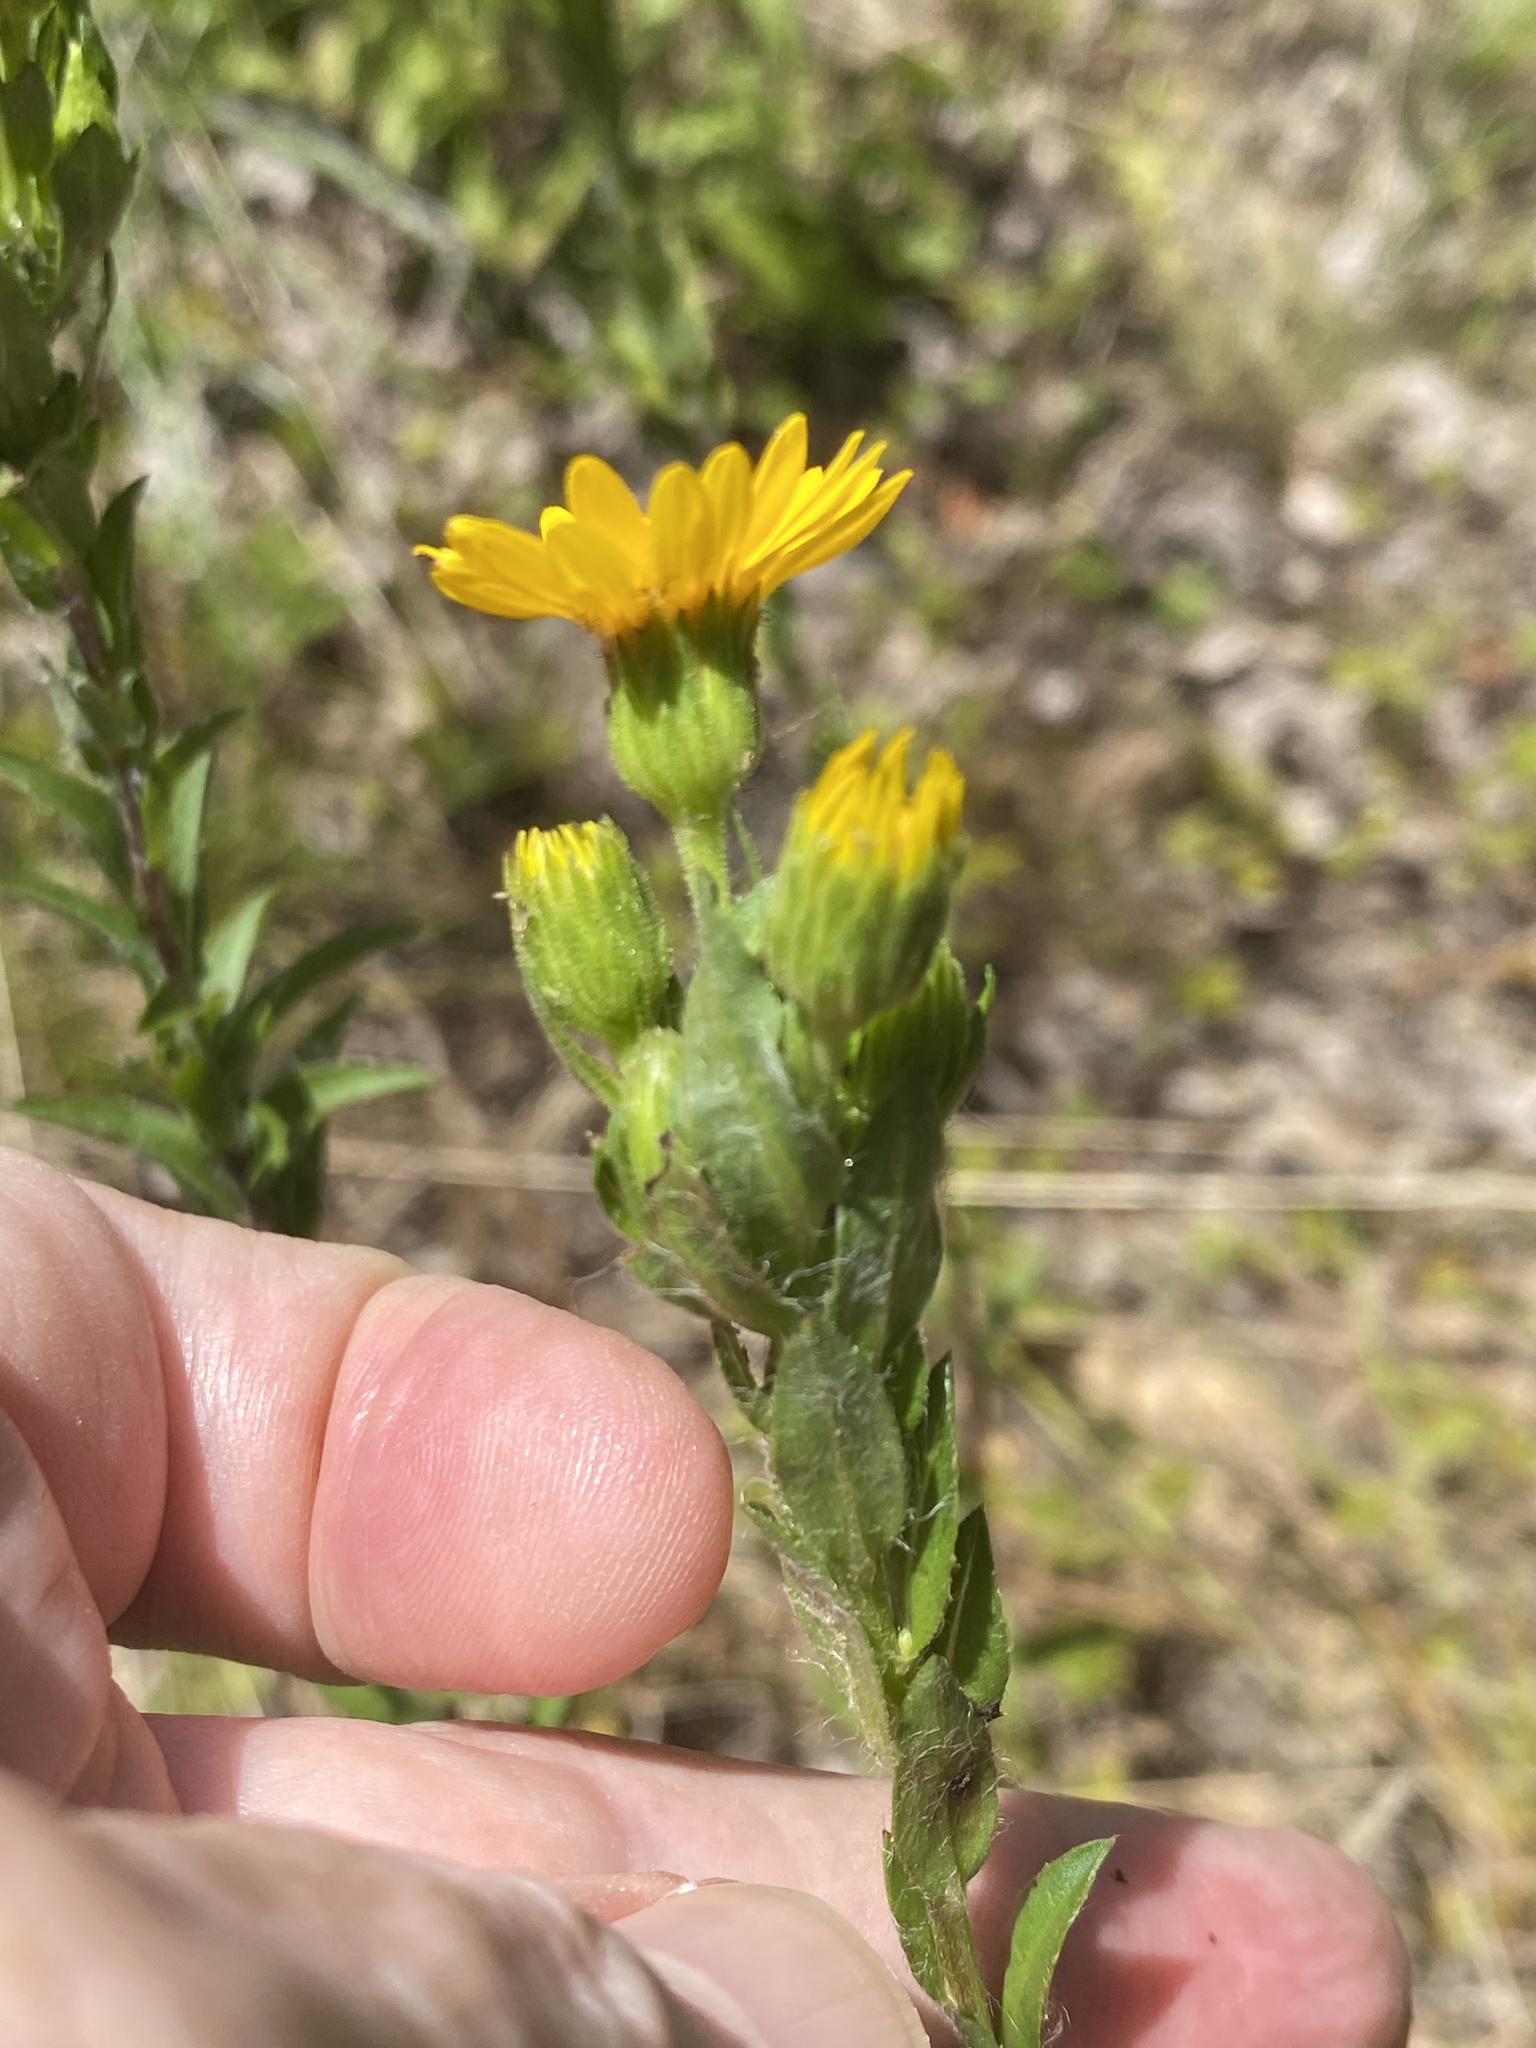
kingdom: Plantae
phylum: Tracheophyta
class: Magnoliopsida
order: Asterales
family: Asteraceae
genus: Chrysopsis
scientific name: Chrysopsis mariana
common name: Maryland golden-aster
